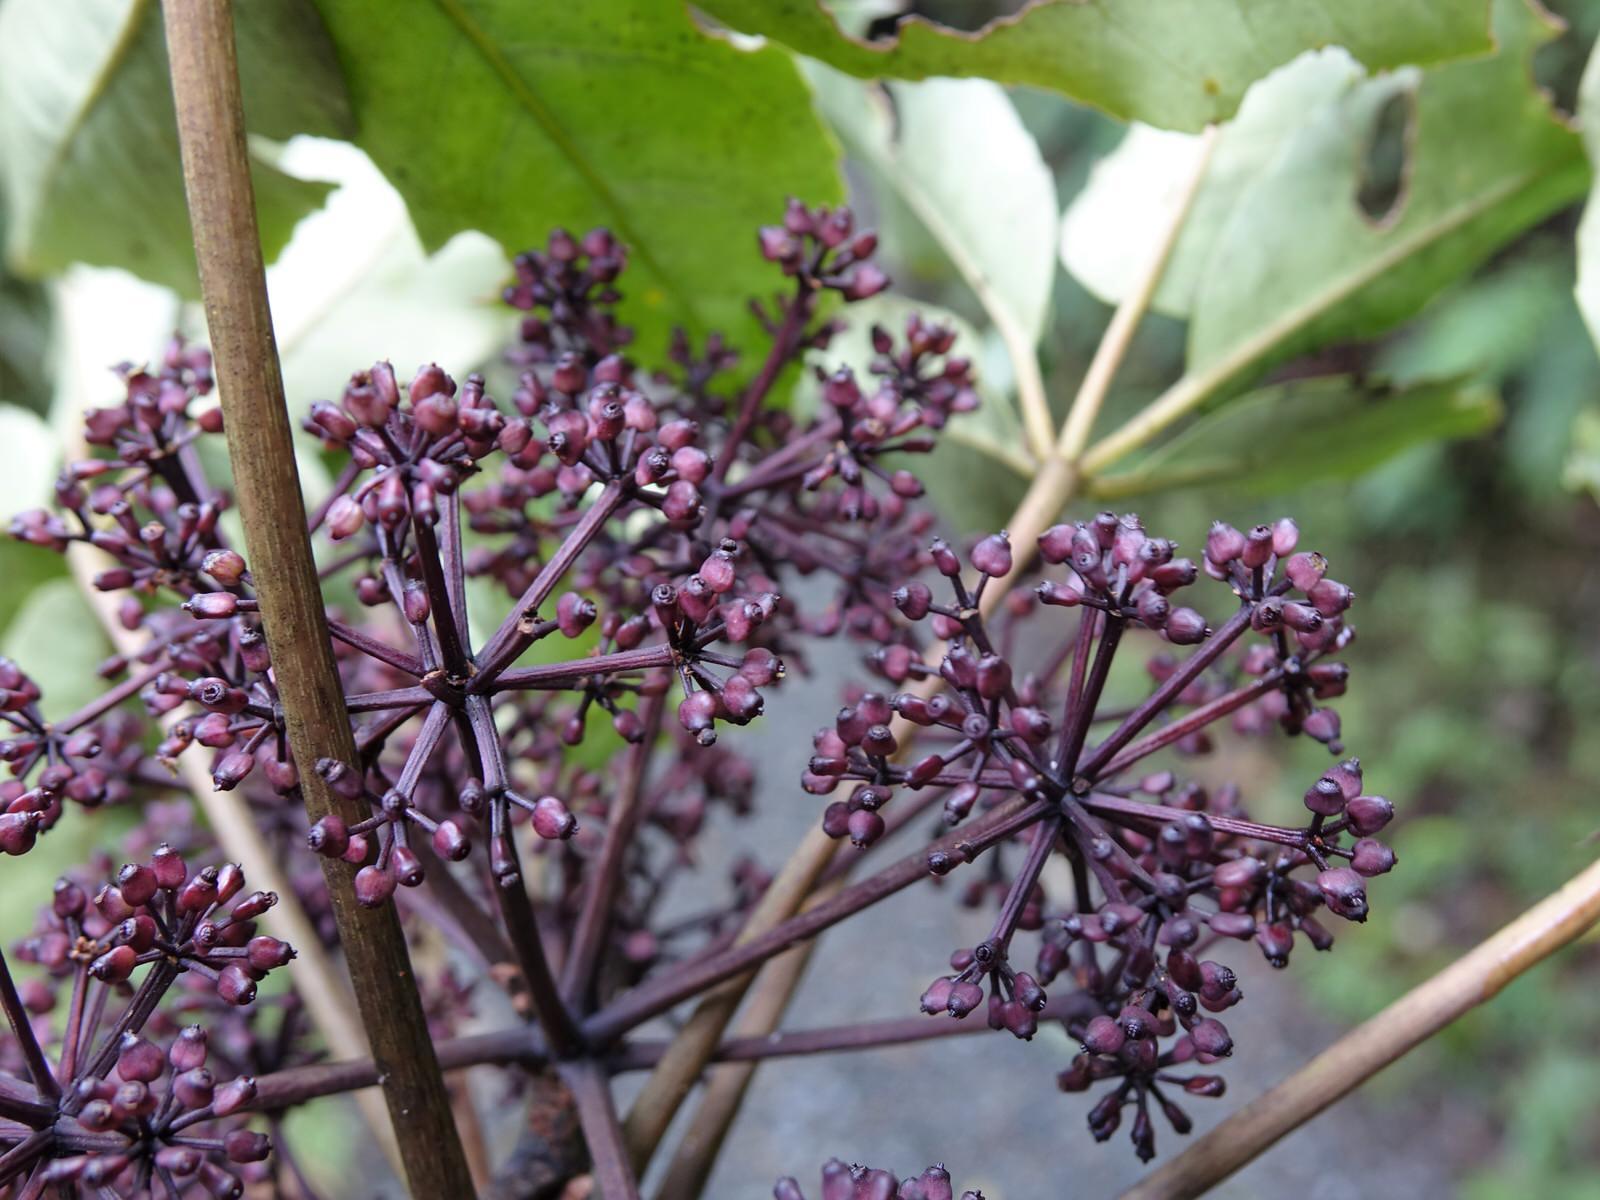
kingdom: Plantae
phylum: Tracheophyta
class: Magnoliopsida
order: Apiales
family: Araliaceae
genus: Neopanax
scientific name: Neopanax arboreus
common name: Five-fingers
